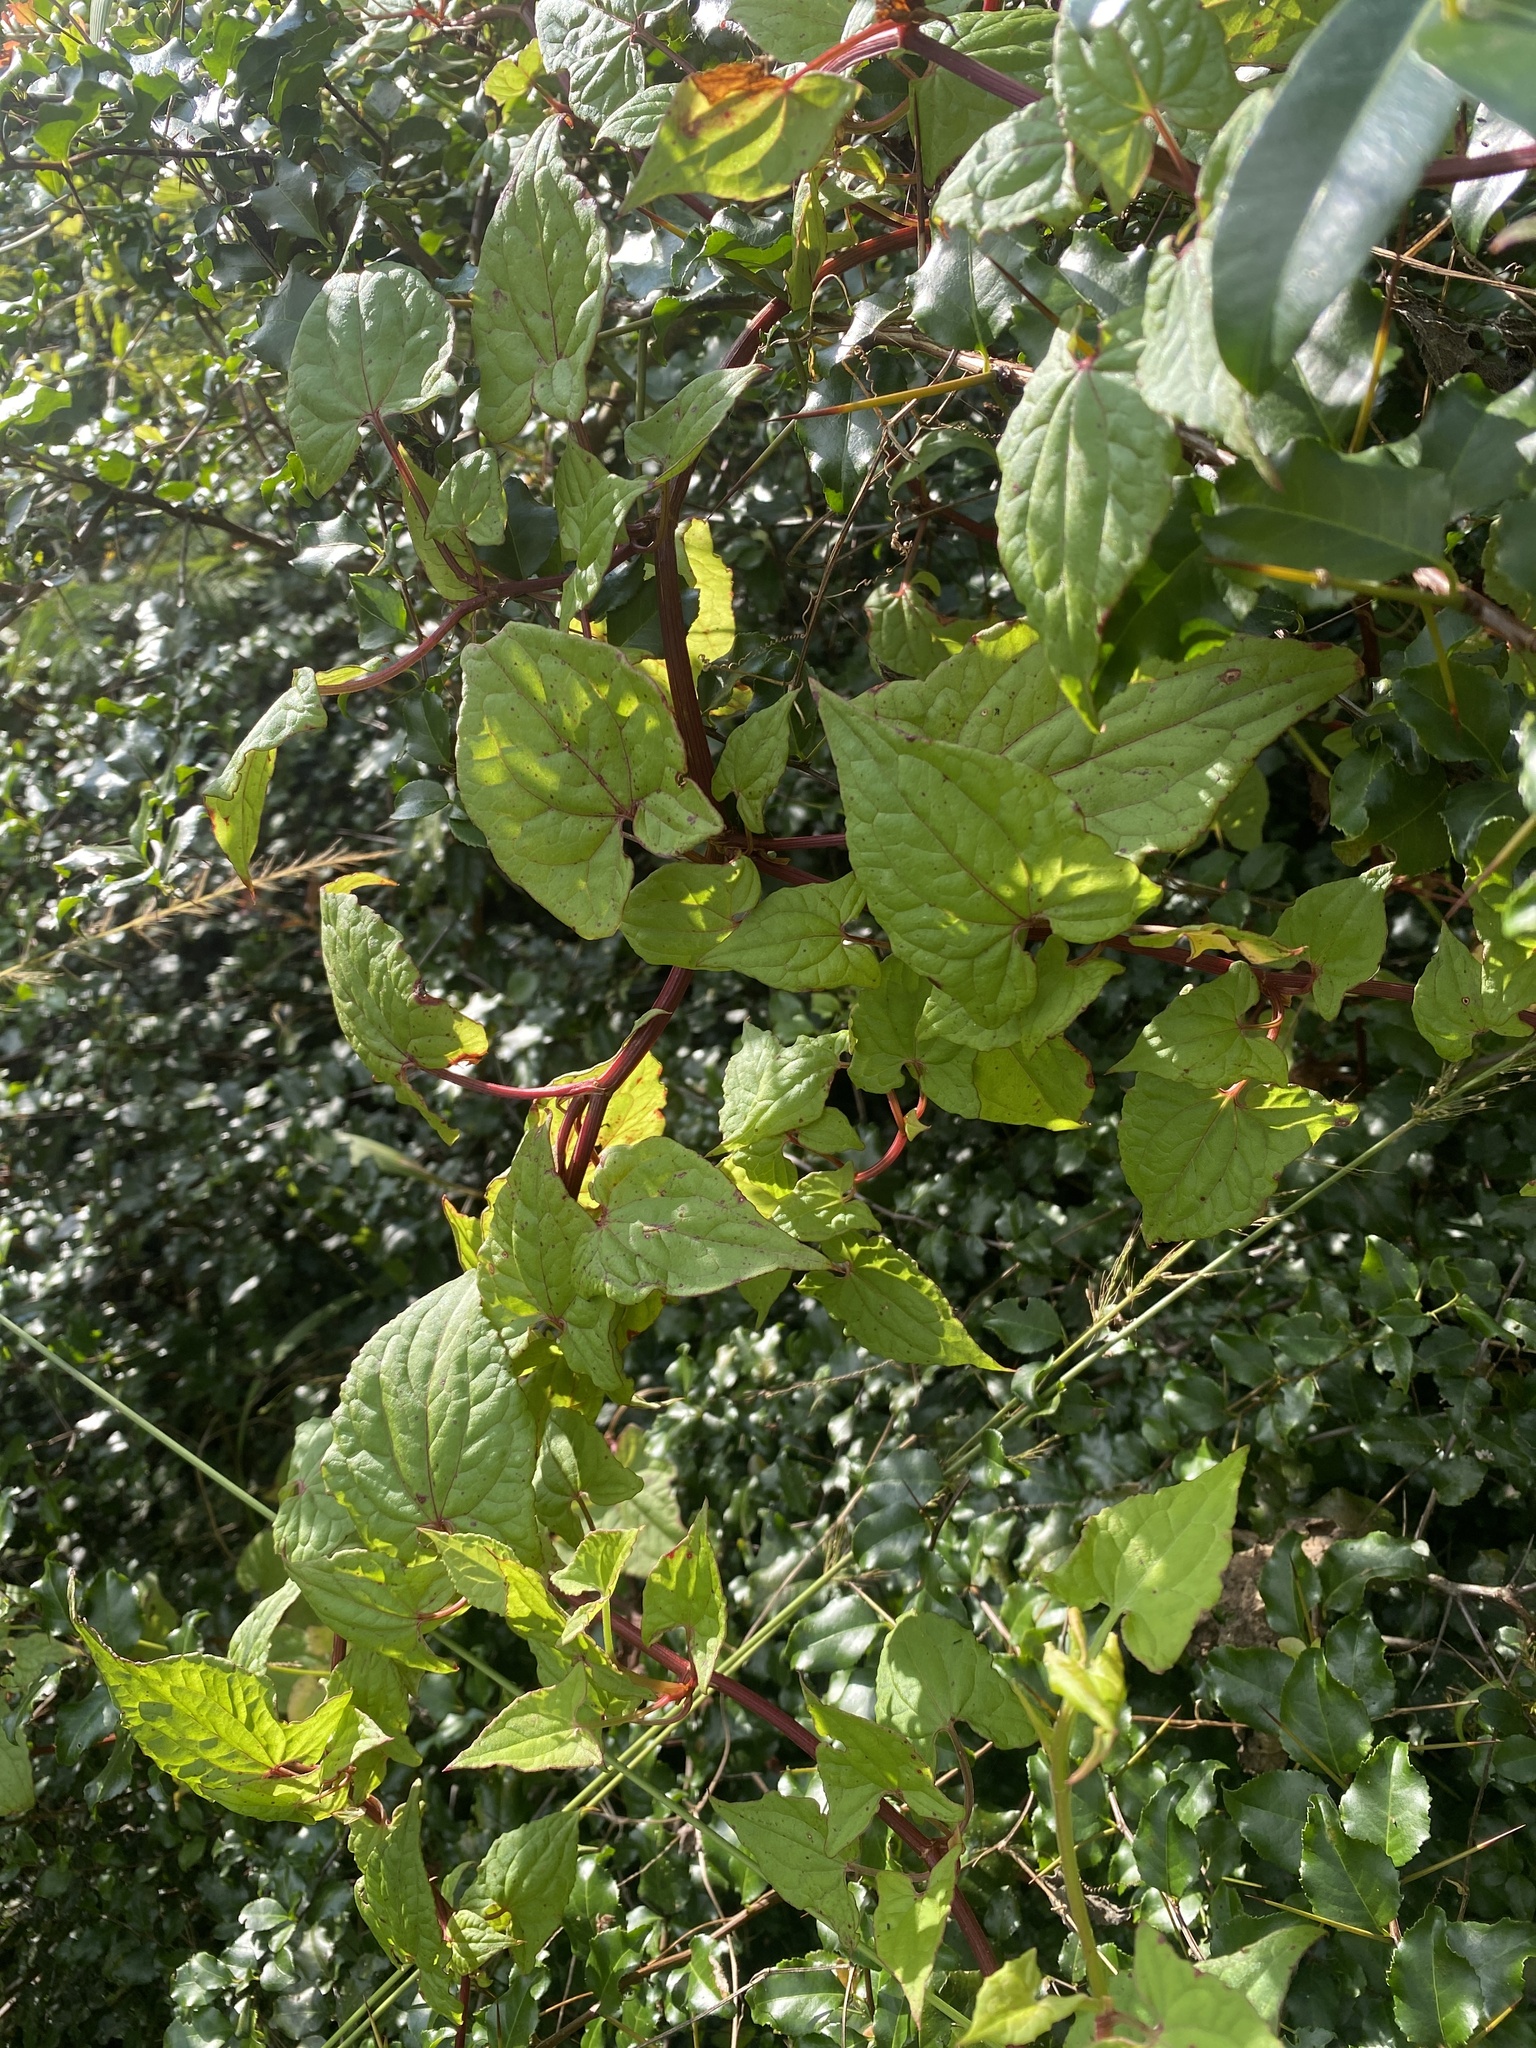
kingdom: Plantae
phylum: Tracheophyta
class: Magnoliopsida
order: Caryophyllales
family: Polygonaceae
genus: Rumex
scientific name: Rumex sagittatus
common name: Climbing dock
